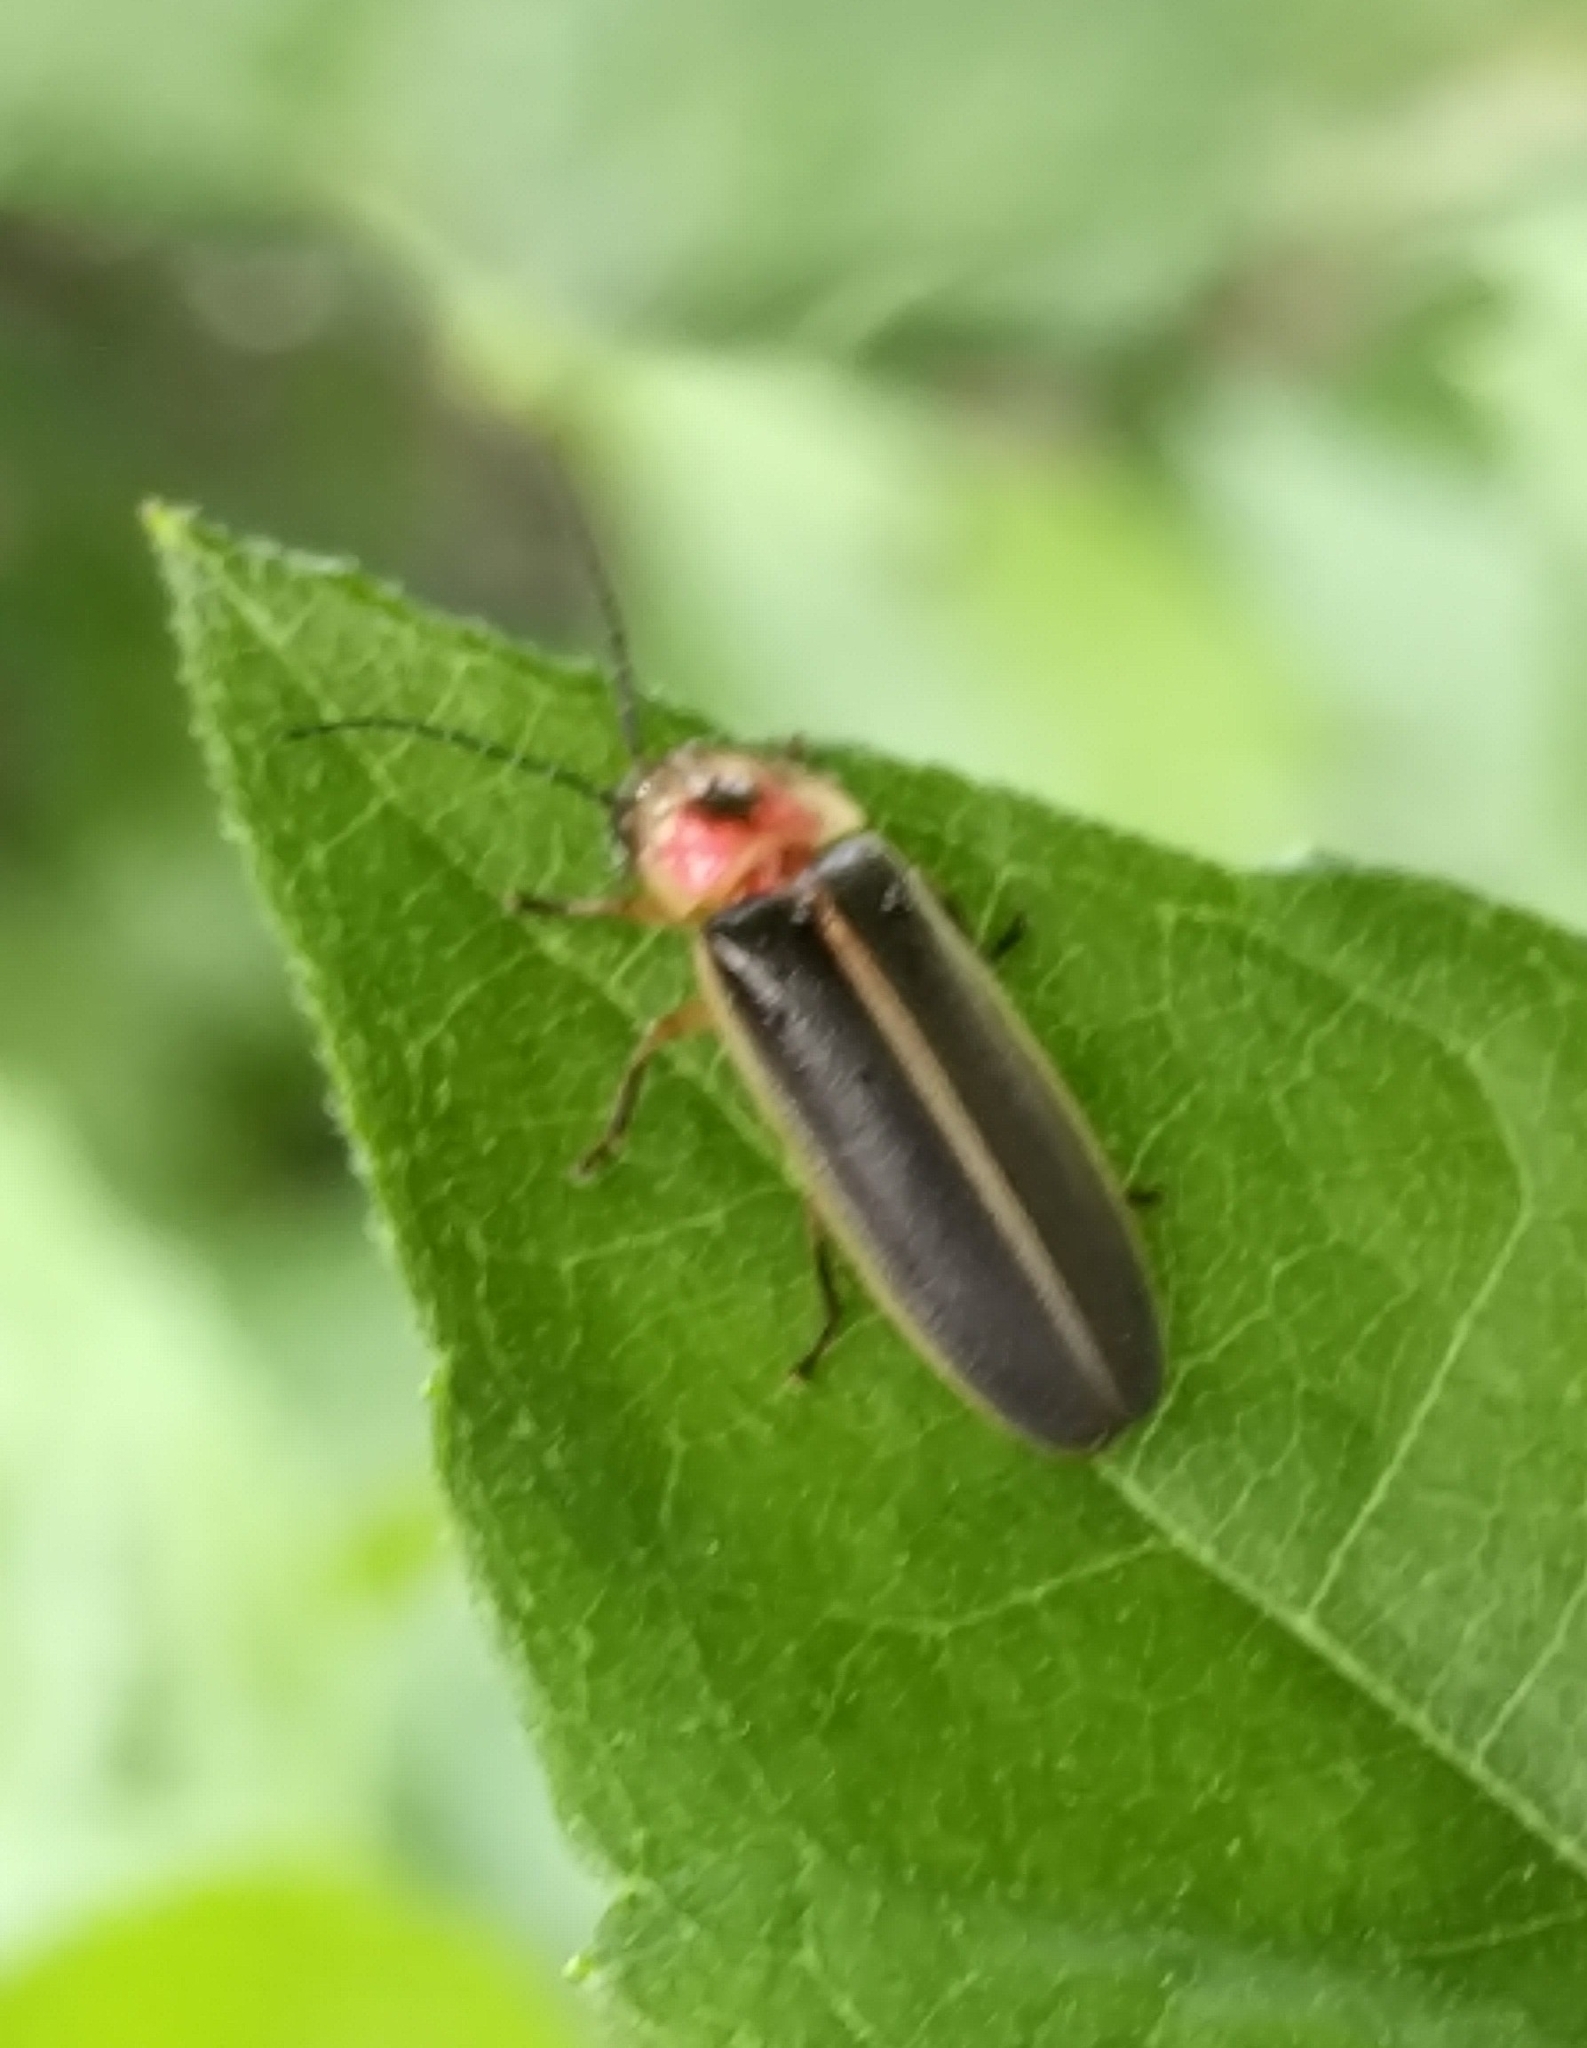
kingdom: Animalia
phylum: Arthropoda
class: Insecta
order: Coleoptera
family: Lampyridae
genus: Photinus
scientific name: Photinus pyralis
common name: Big dipper firefly
